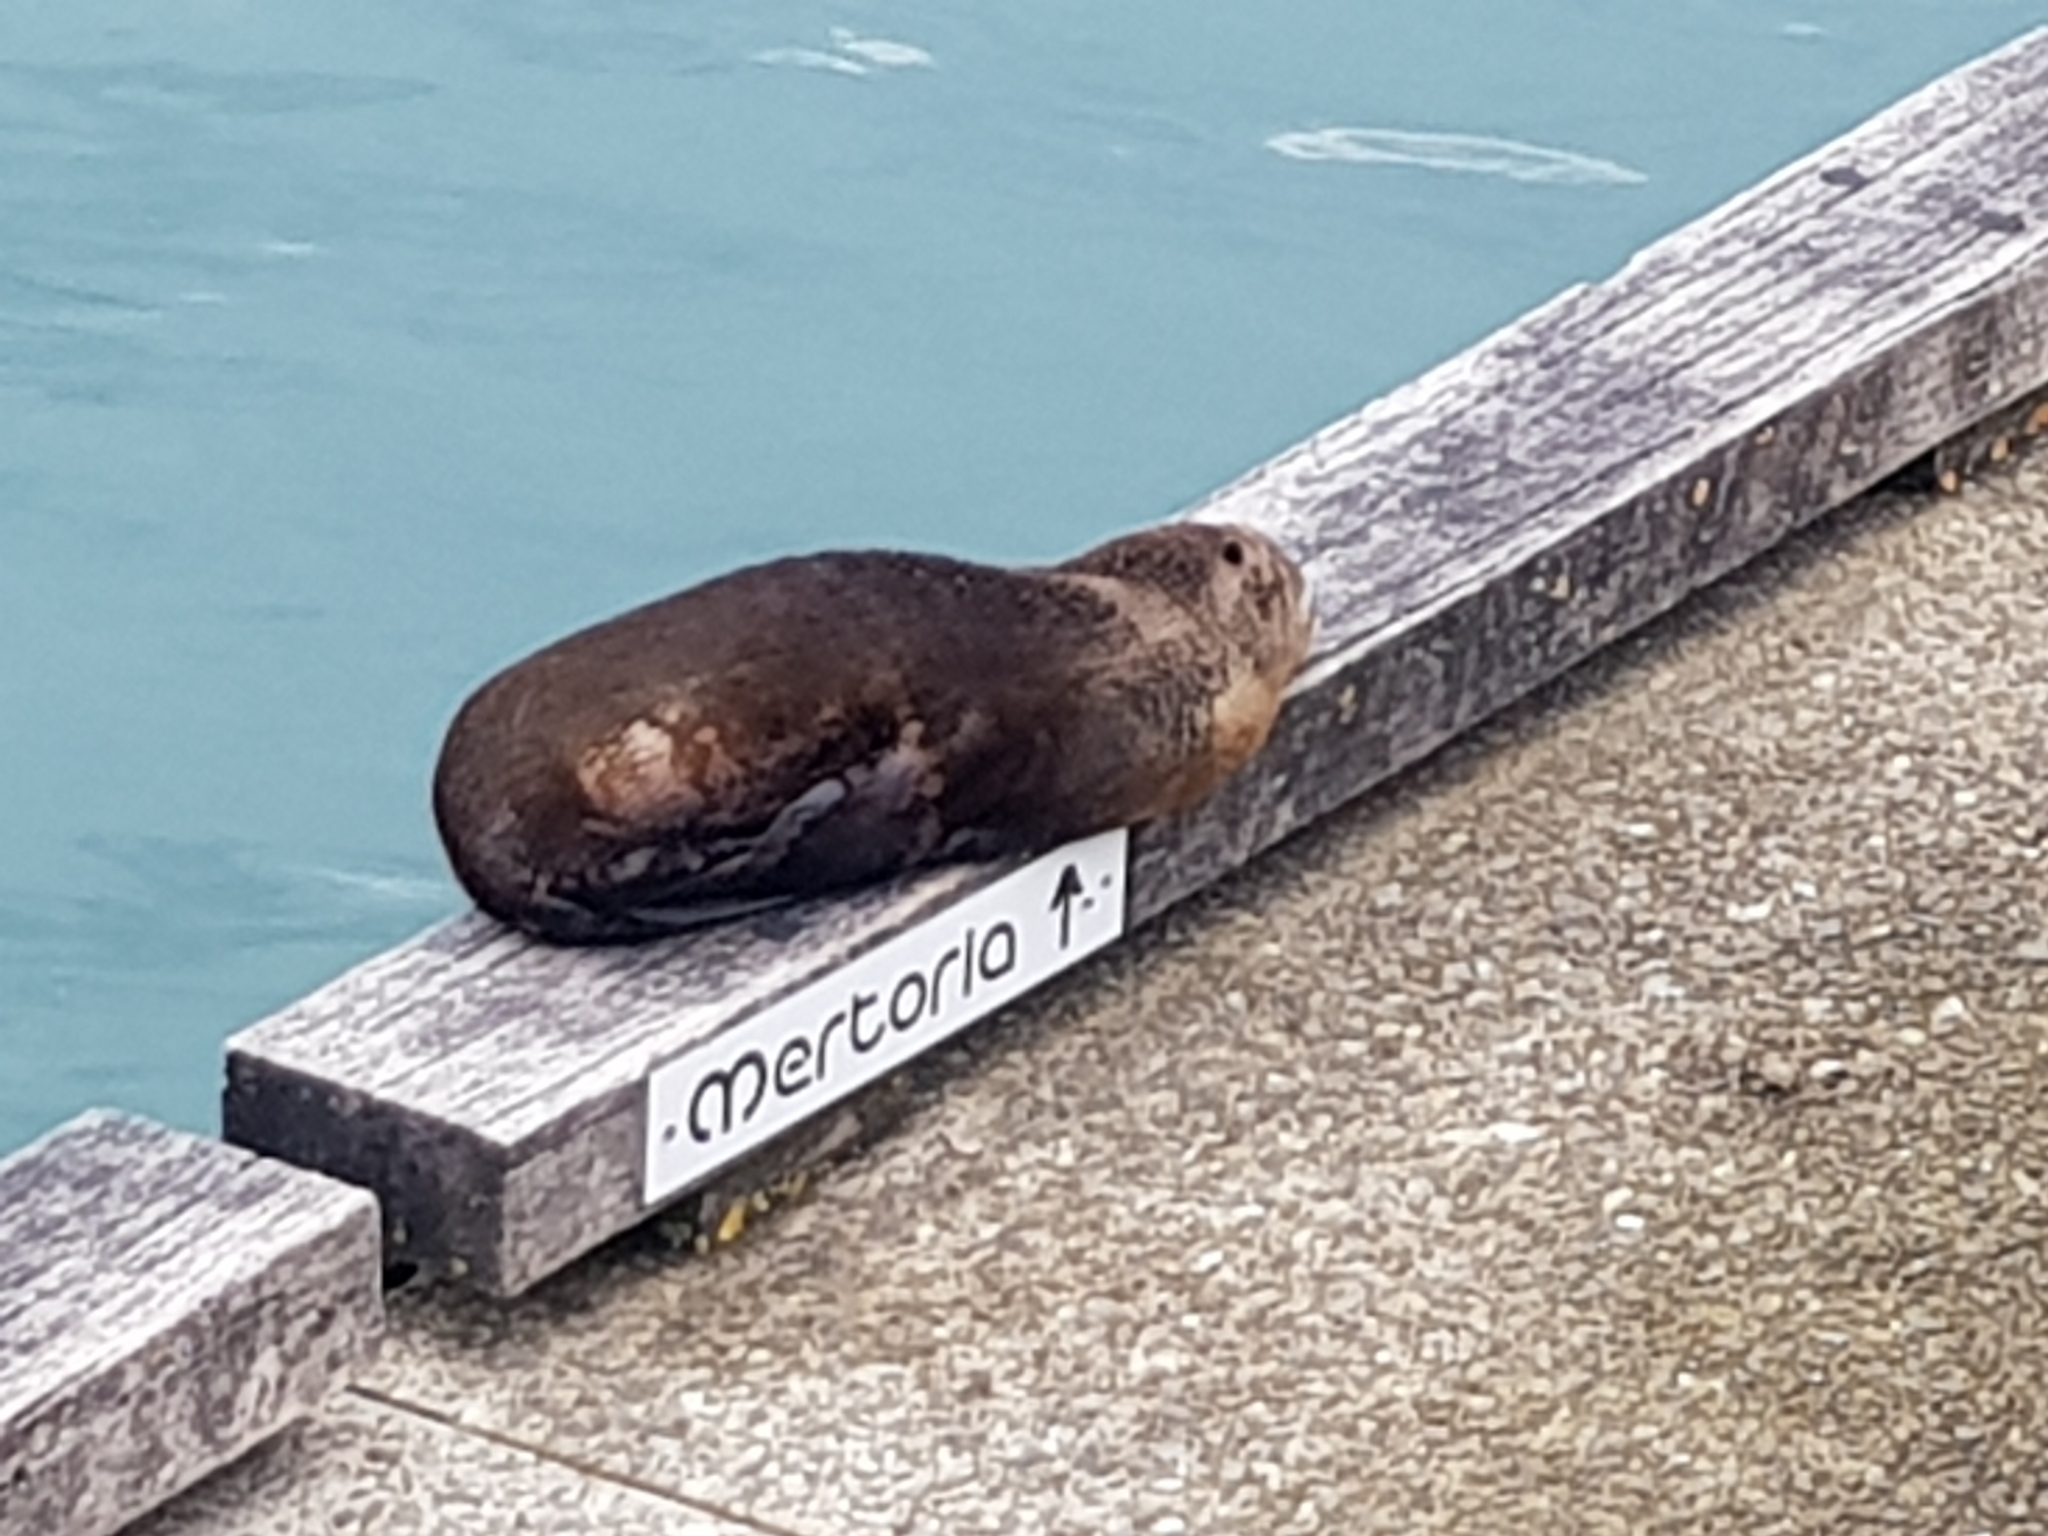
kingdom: Animalia
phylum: Chordata
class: Mammalia
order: Carnivora
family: Otariidae
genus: Arctocephalus
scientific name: Arctocephalus forsteri
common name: New zealand fur seal
